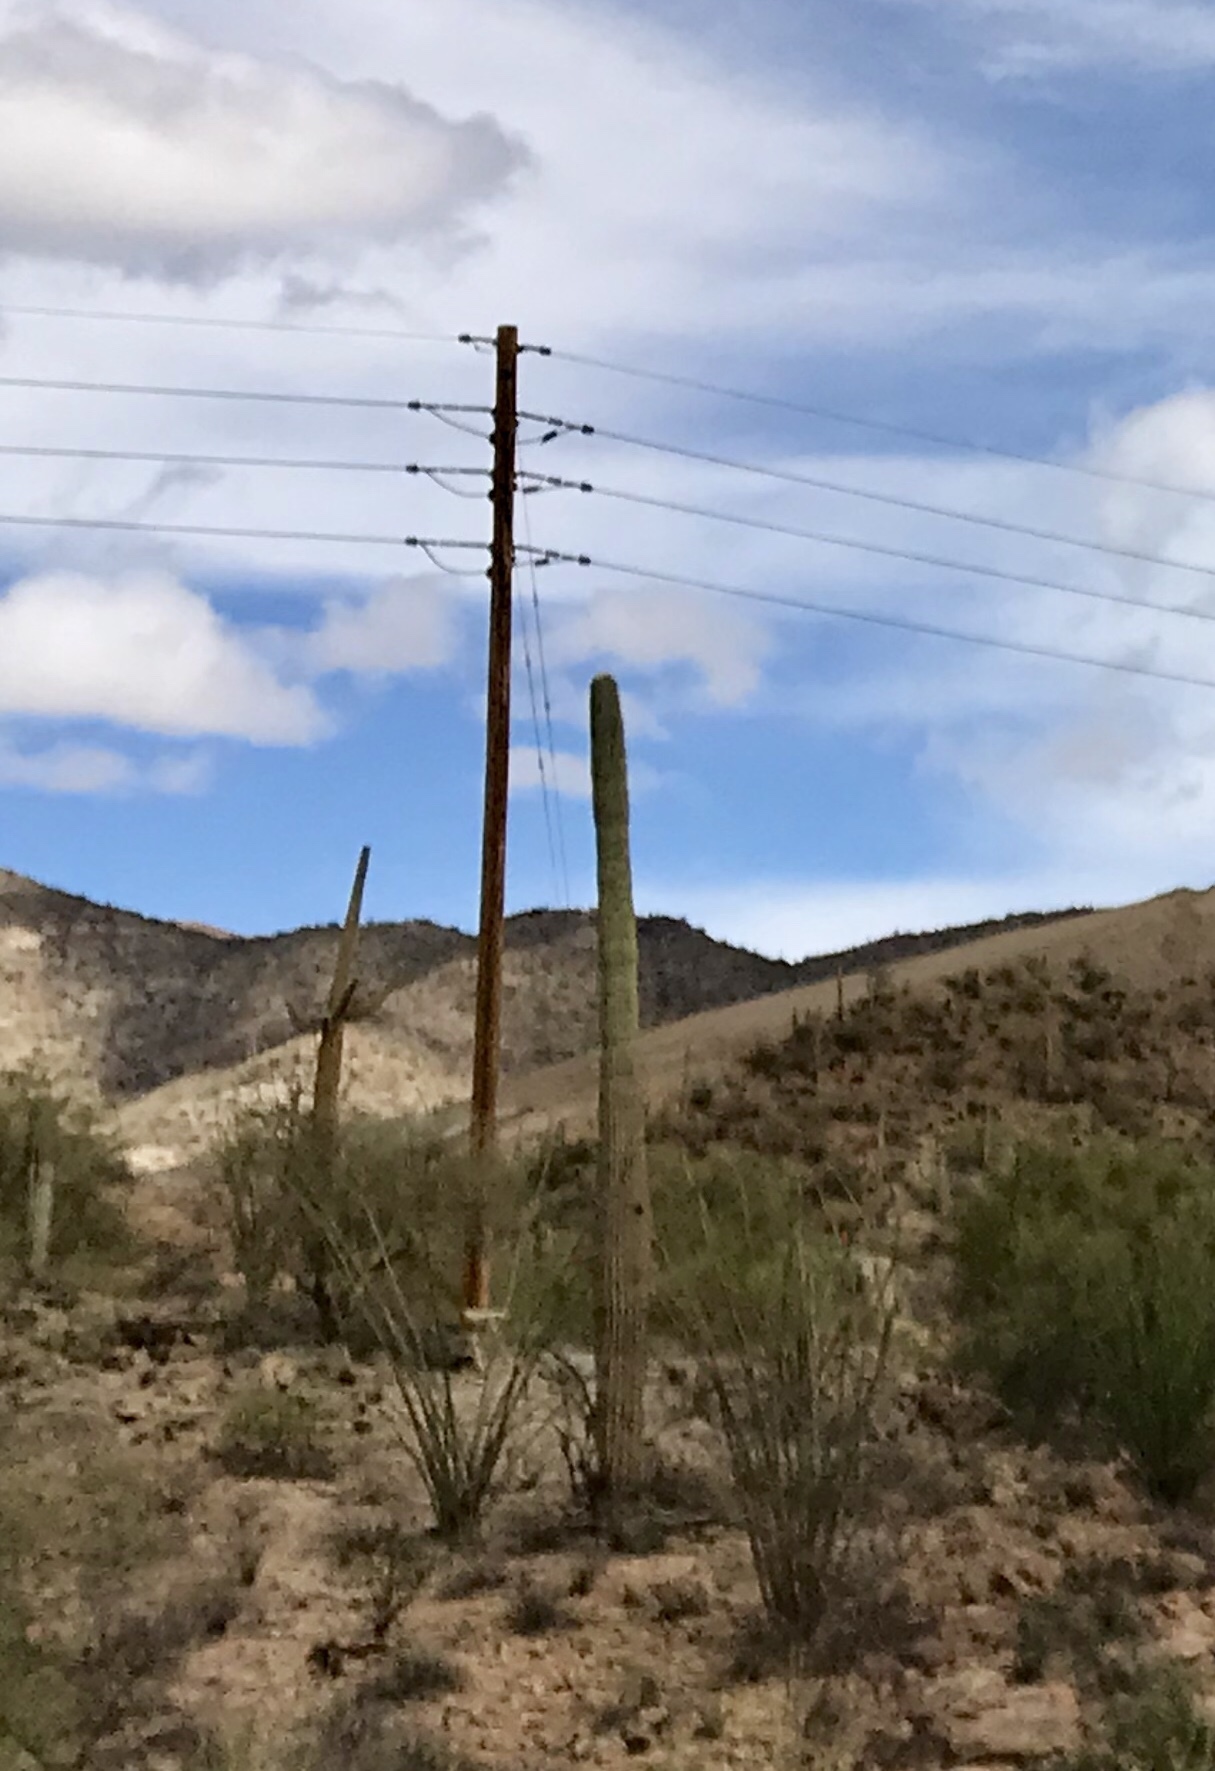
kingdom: Plantae
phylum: Tracheophyta
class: Magnoliopsida
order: Caryophyllales
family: Cactaceae
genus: Carnegiea
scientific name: Carnegiea gigantea
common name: Saguaro
